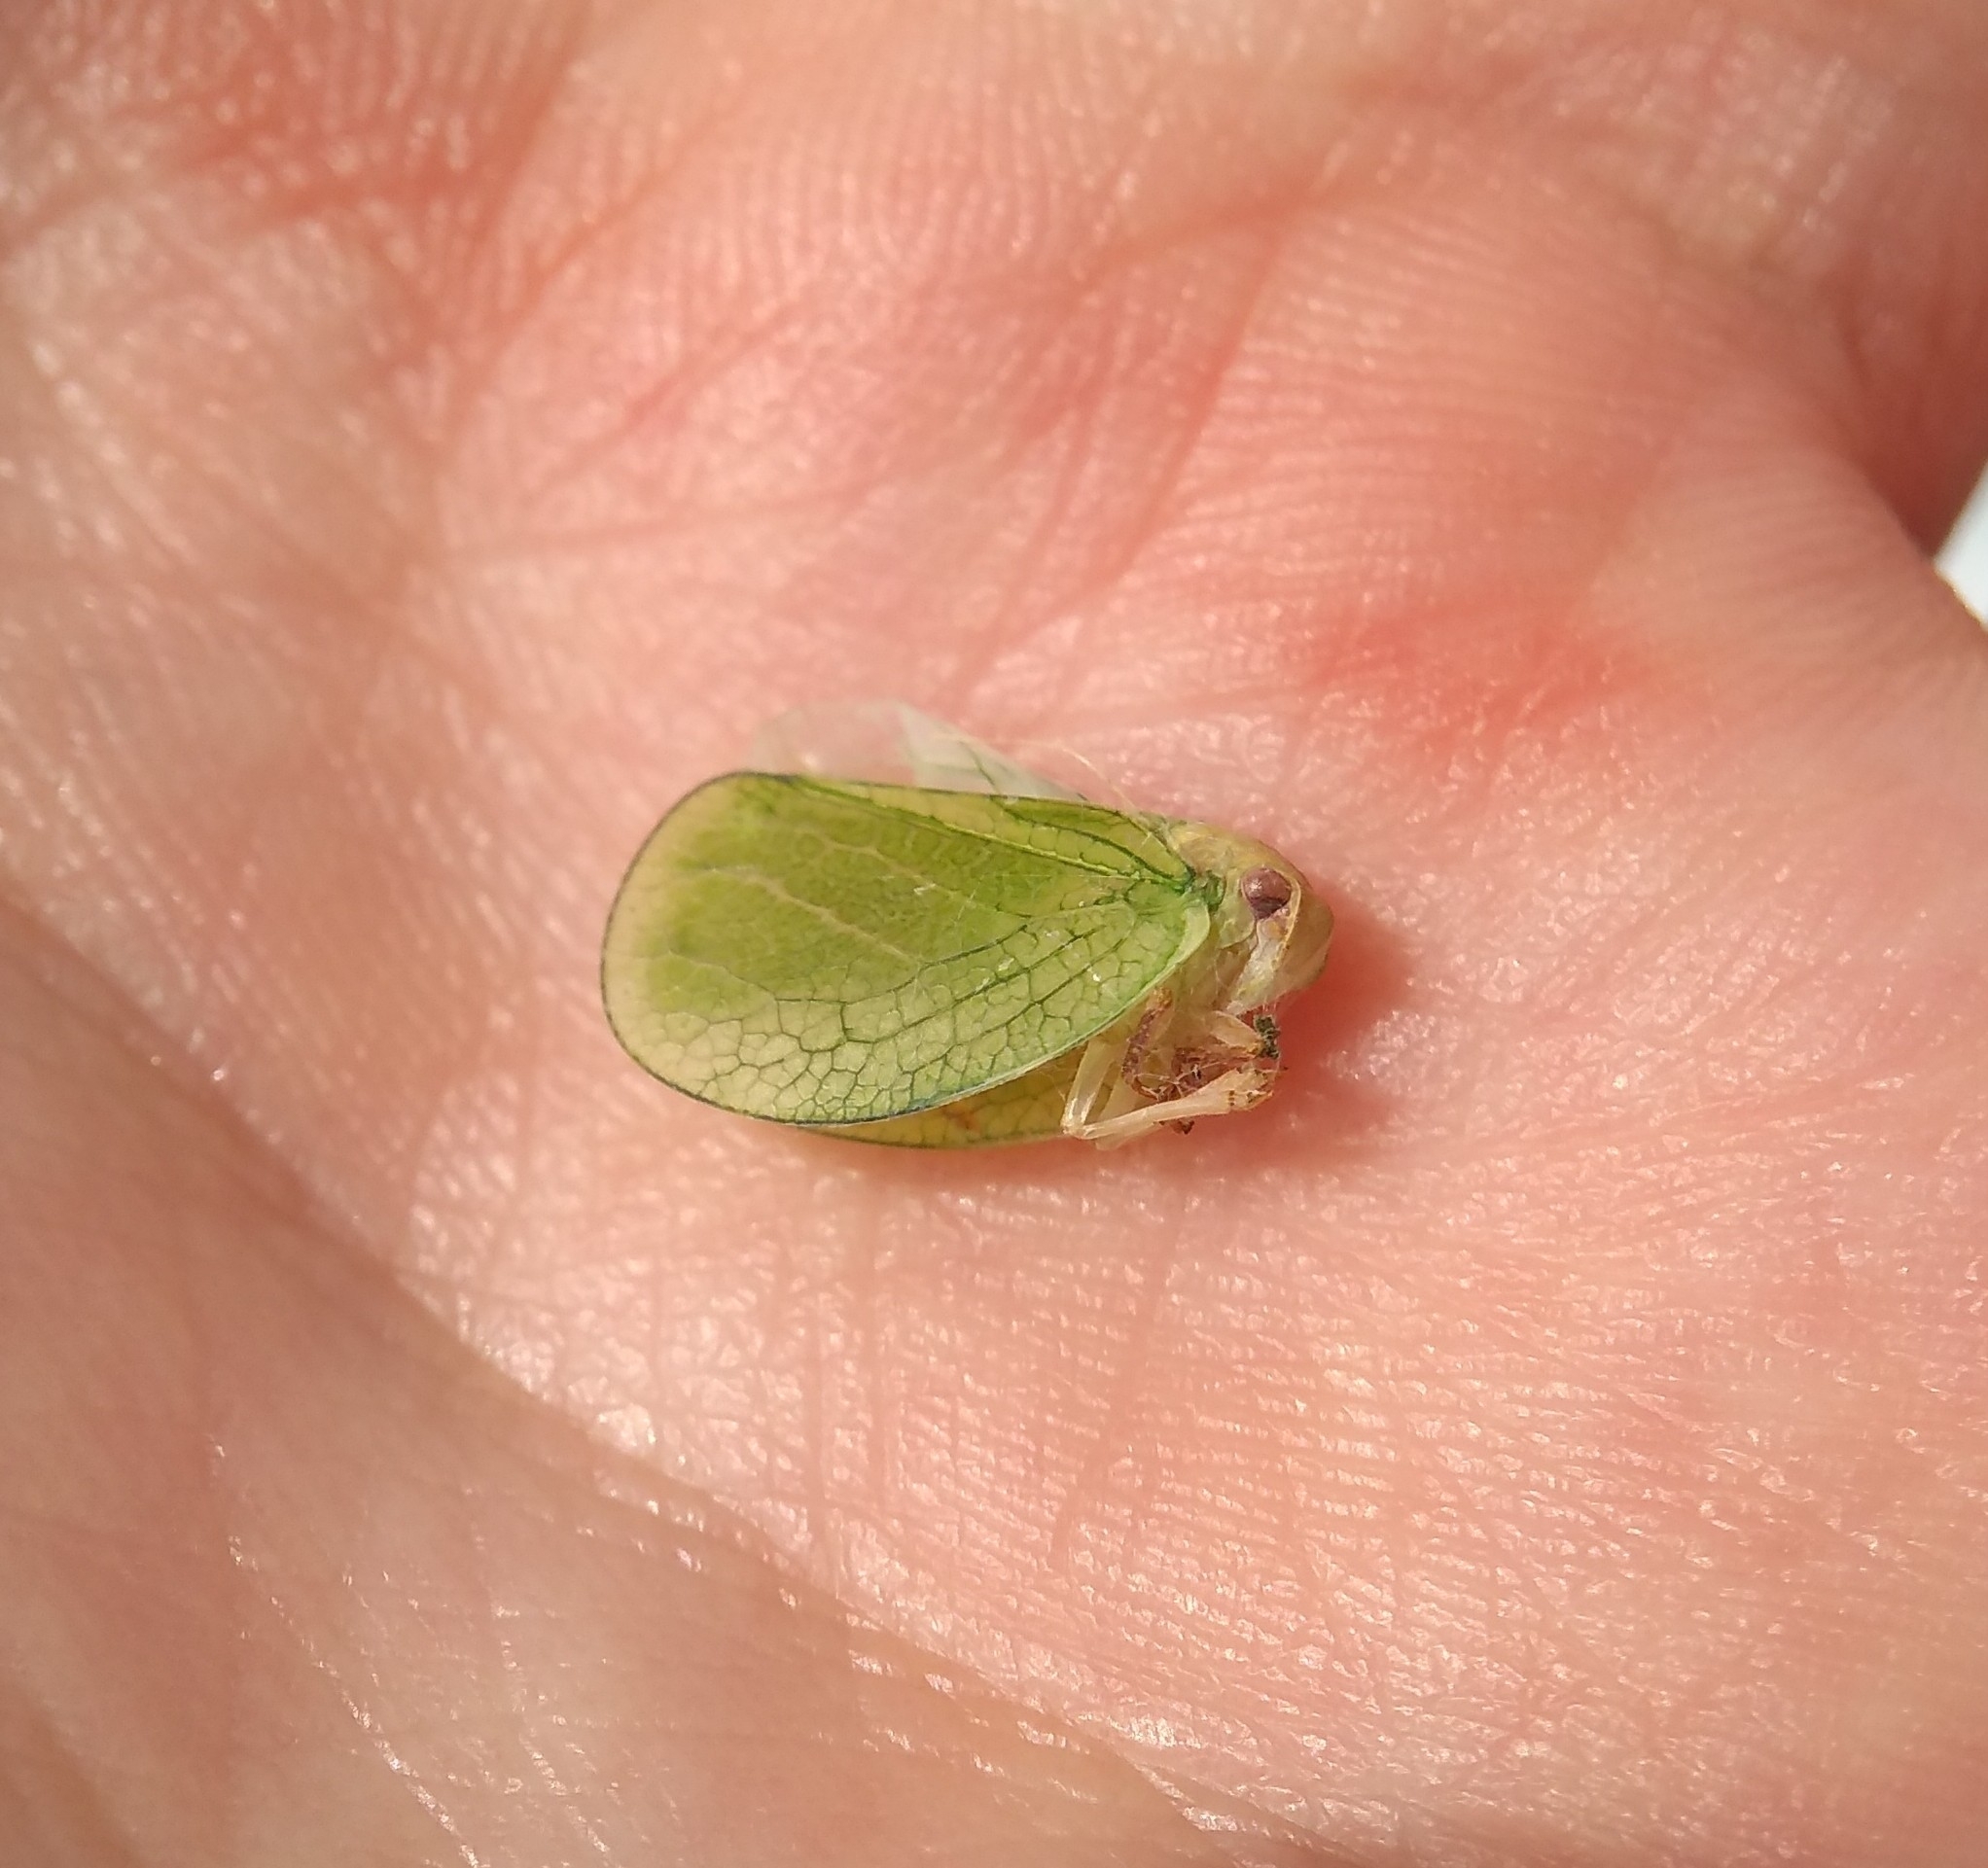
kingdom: Animalia
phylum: Arthropoda
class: Insecta
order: Hemiptera
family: Acanaloniidae
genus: Acanalonia
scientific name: Acanalonia servillei
